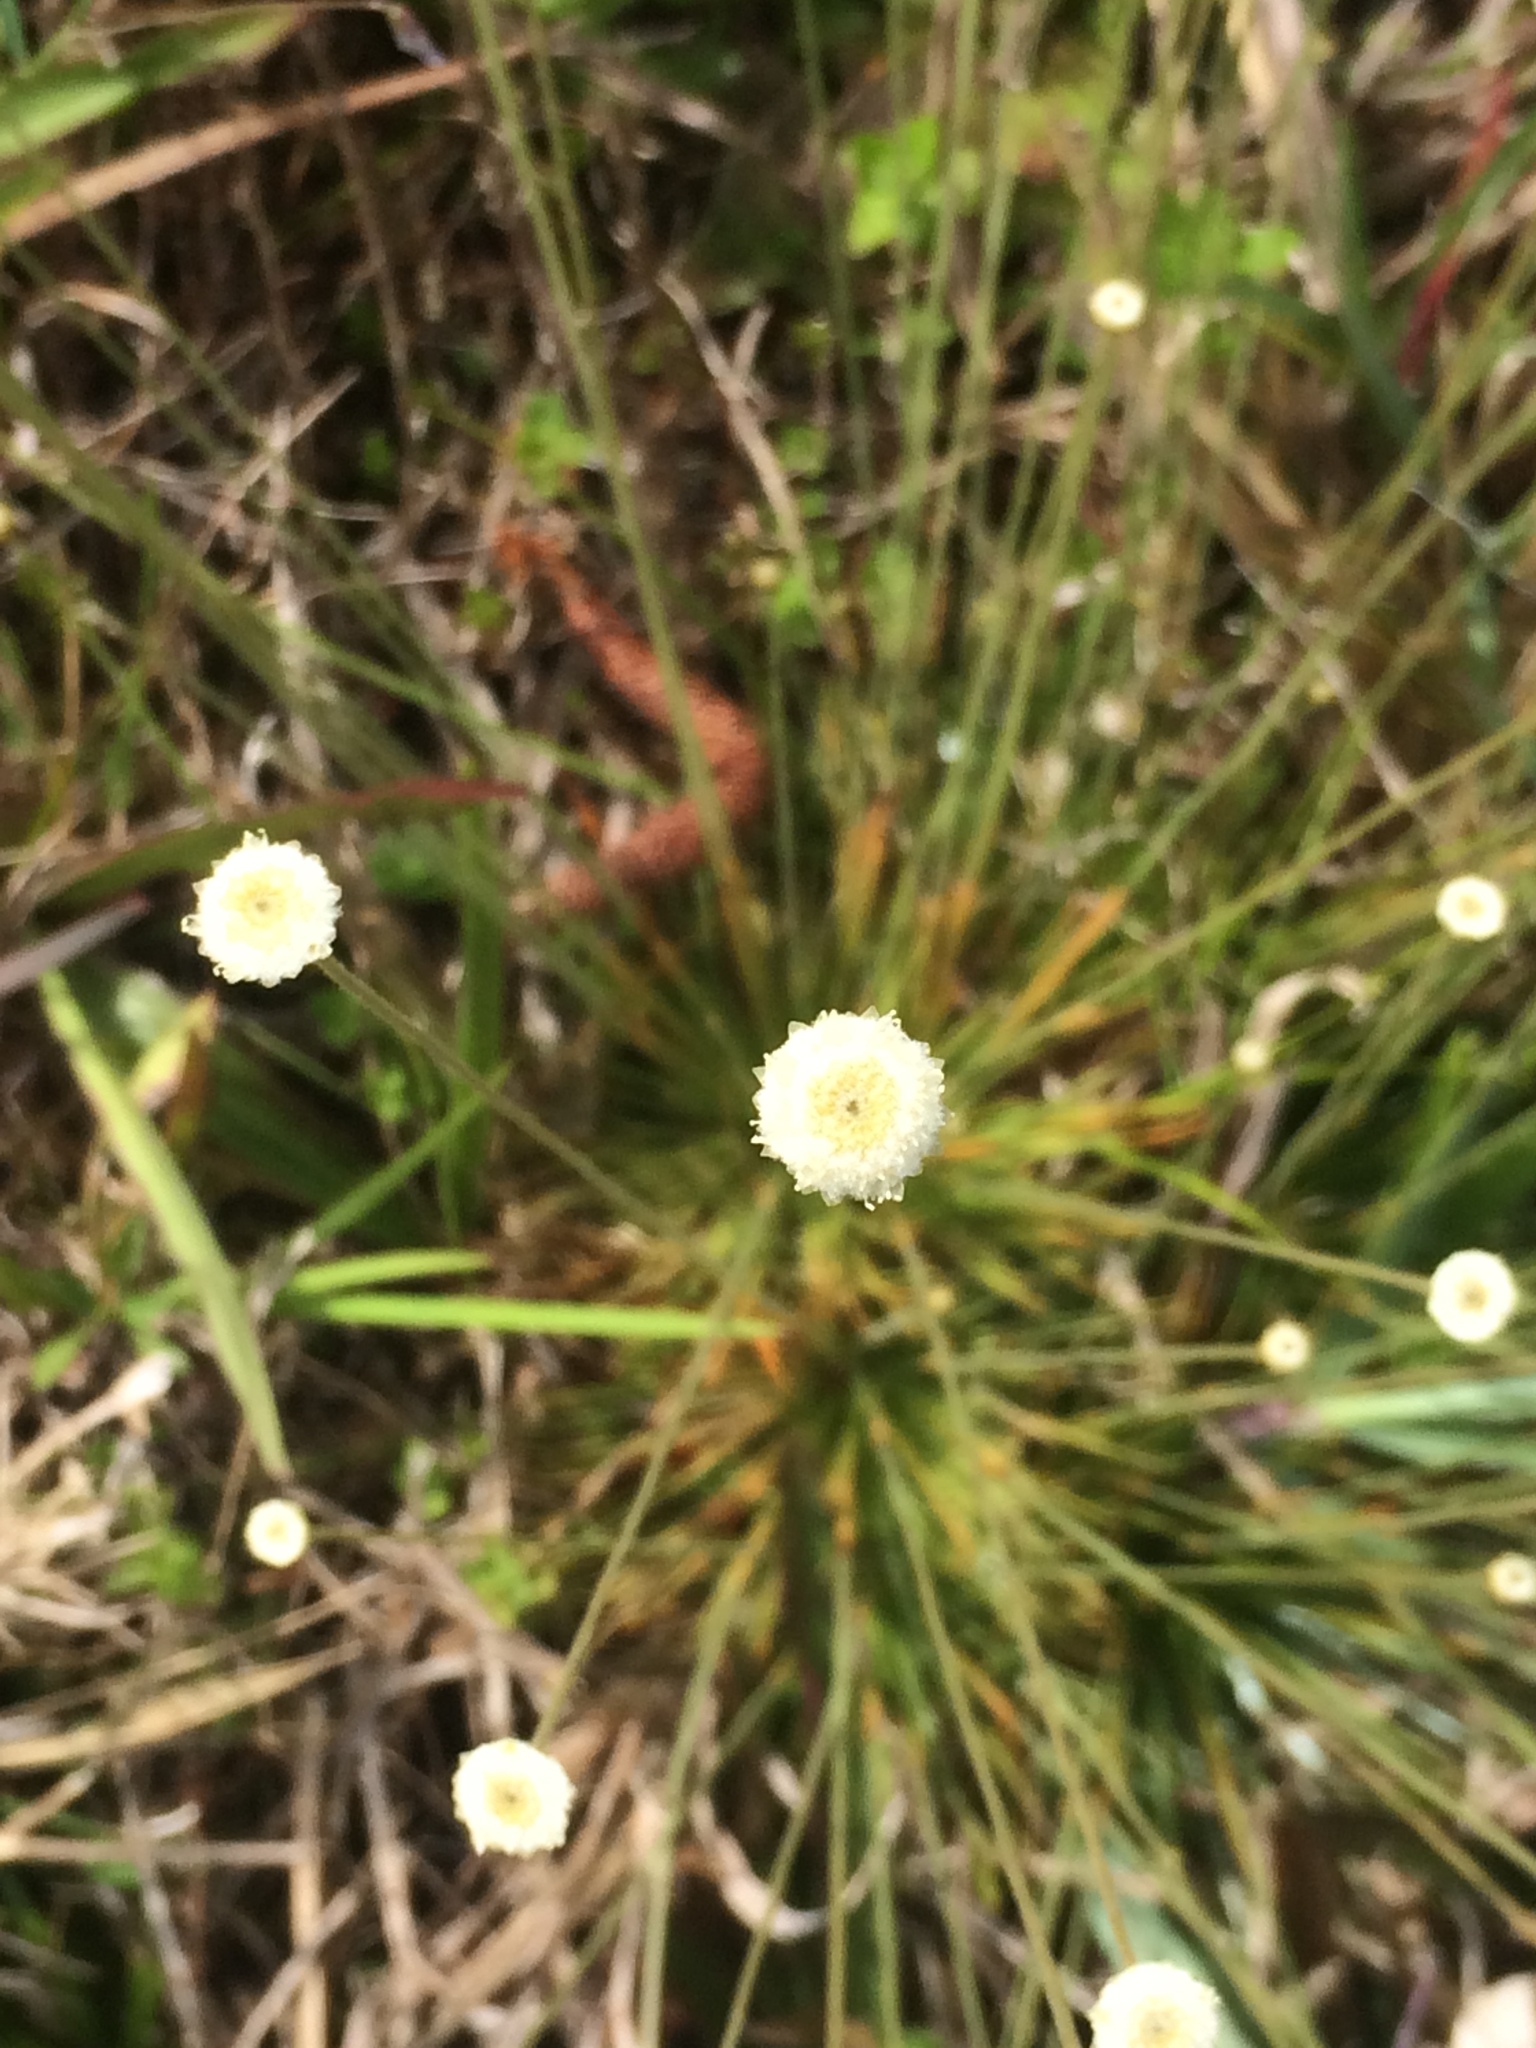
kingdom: Plantae
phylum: Tracheophyta
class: Liliopsida
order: Poales
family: Eriocaulaceae
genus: Syngonanthus
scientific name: Syngonanthus flavidulus
